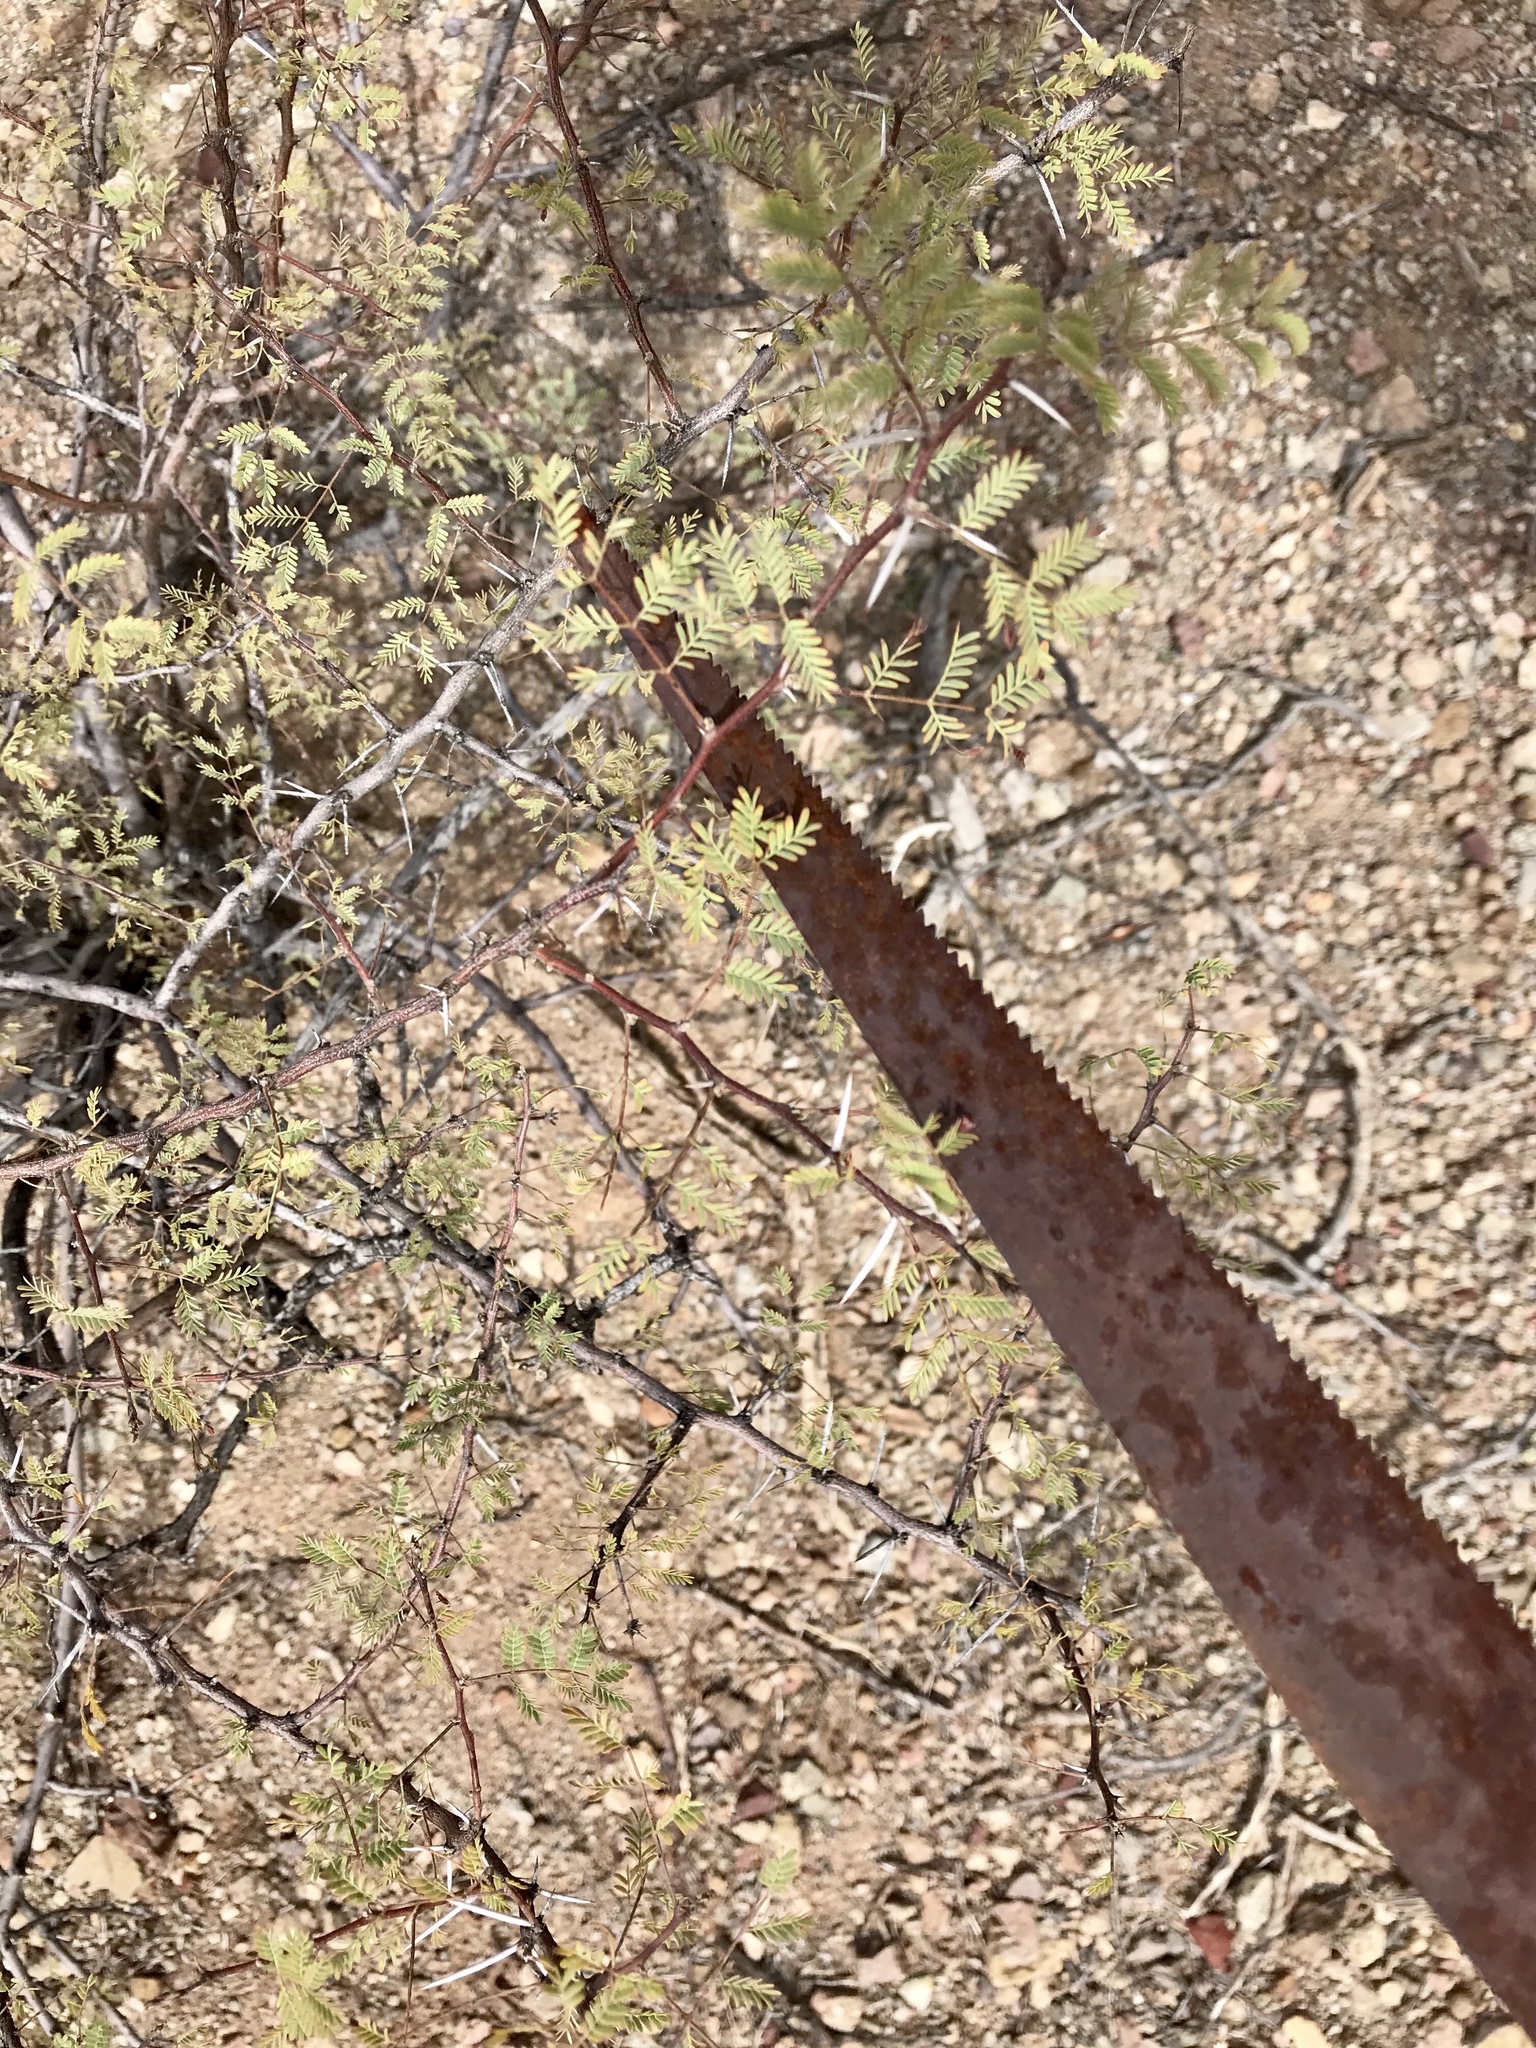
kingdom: Plantae
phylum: Tracheophyta
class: Magnoliopsida
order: Fabales
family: Fabaceae
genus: Vachellia
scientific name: Vachellia constricta
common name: Mescat acacia
